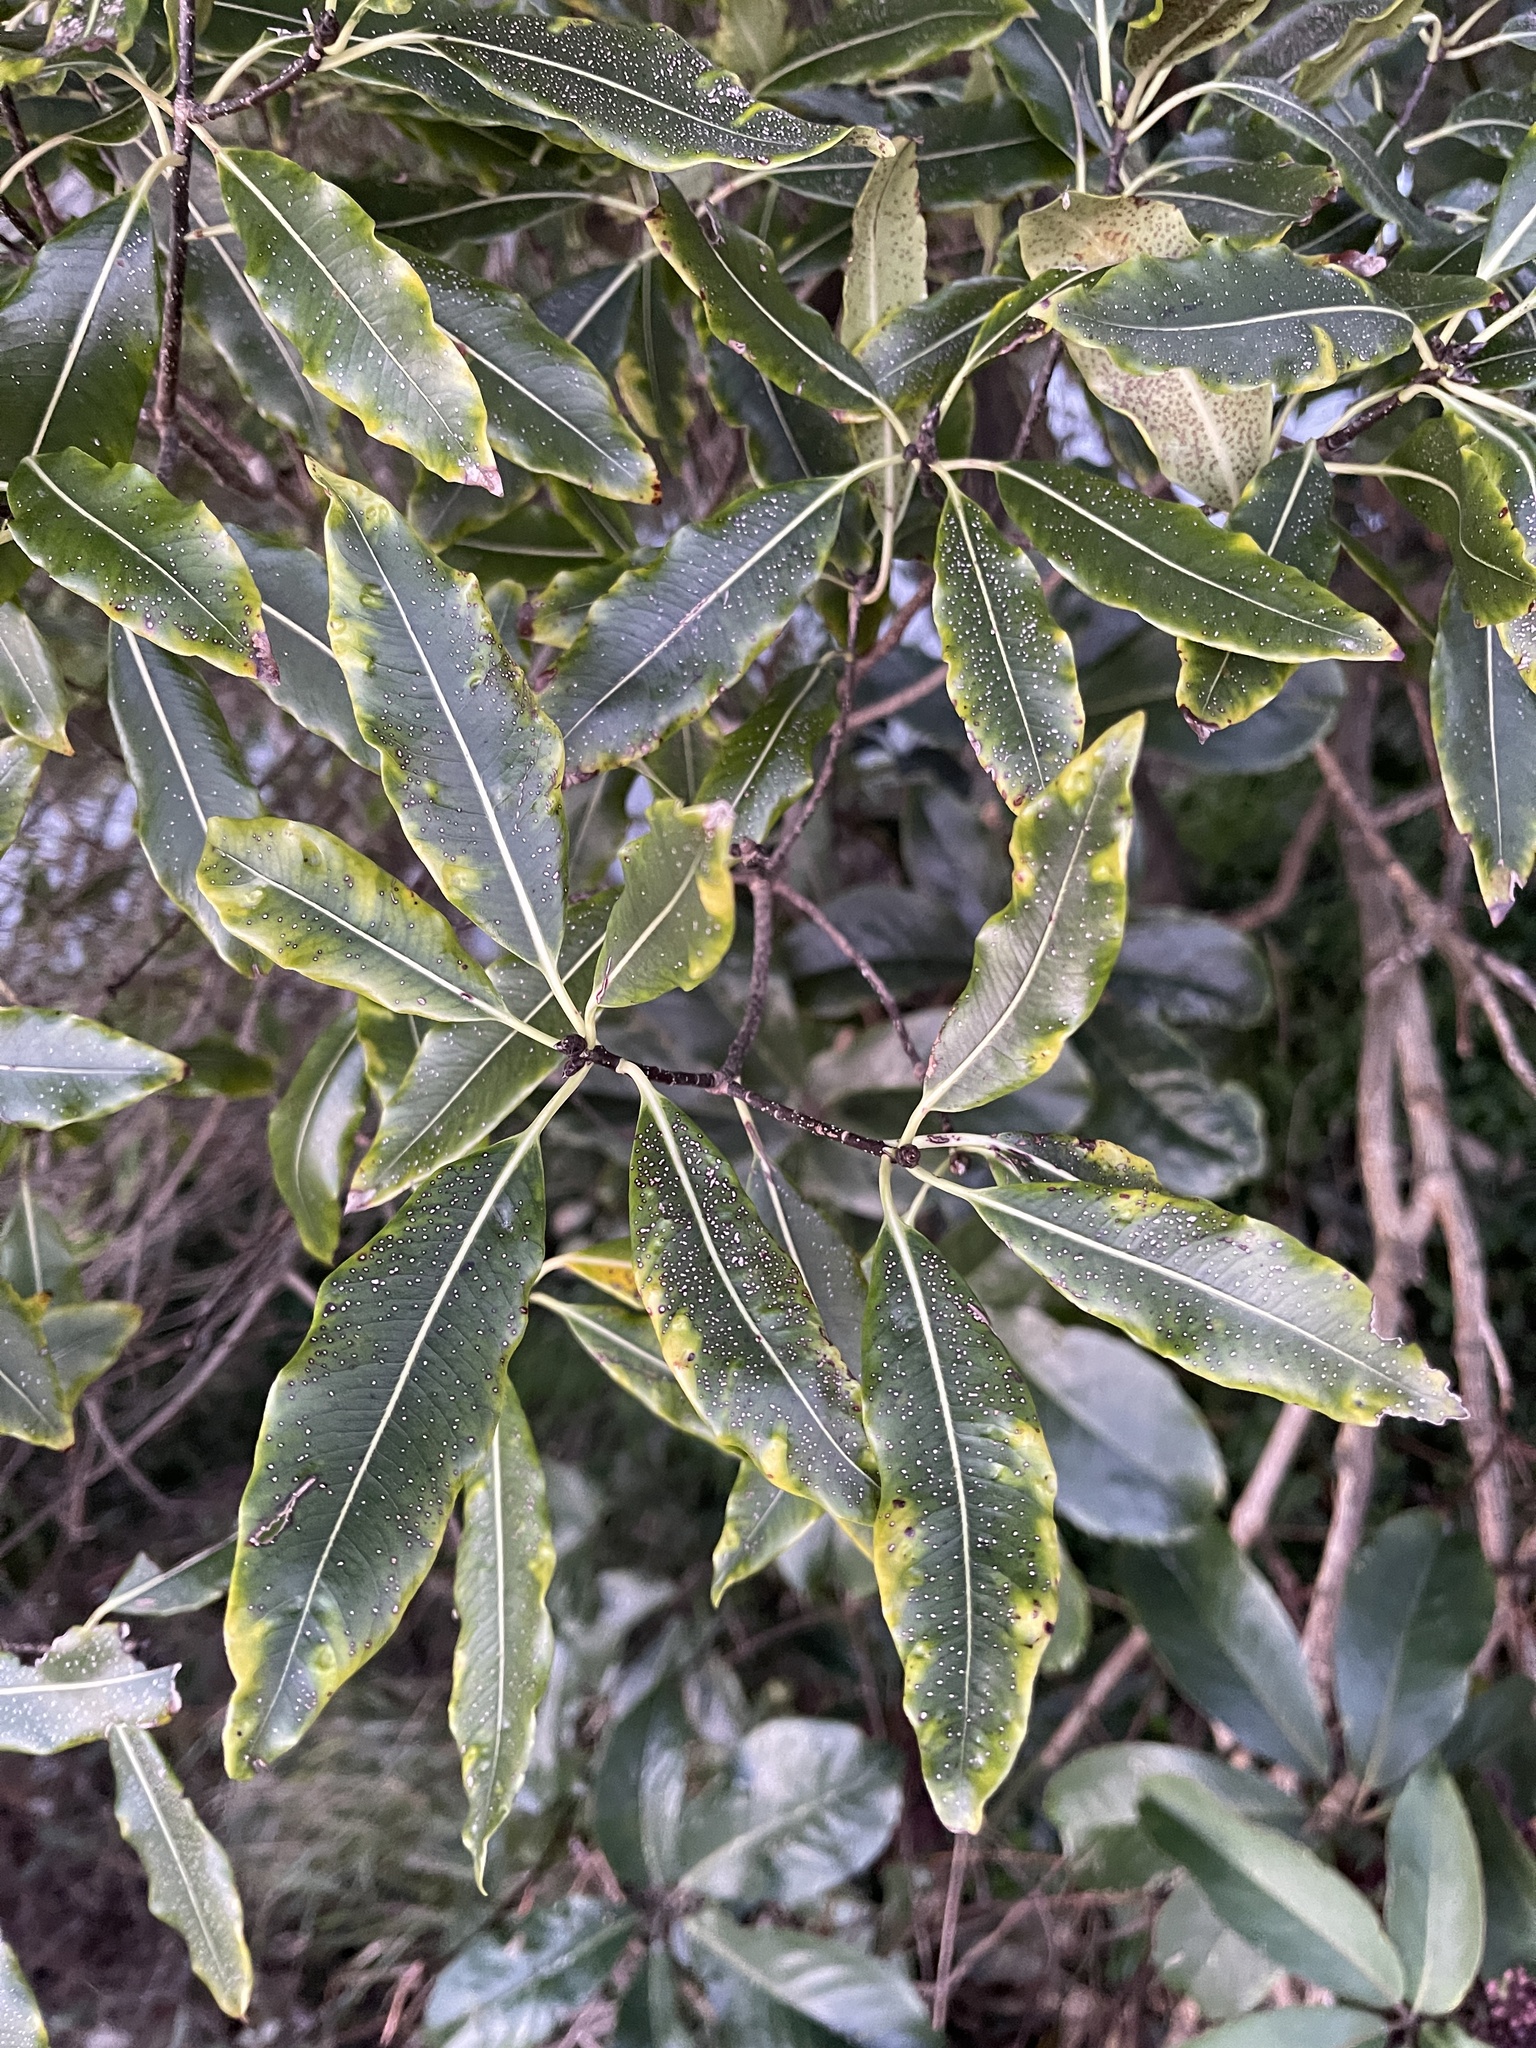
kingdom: Plantae
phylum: Tracheophyta
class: Magnoliopsida
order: Apiales
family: Pittosporaceae
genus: Pittosporum
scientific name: Pittosporum eugenioides
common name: Lemonwood
